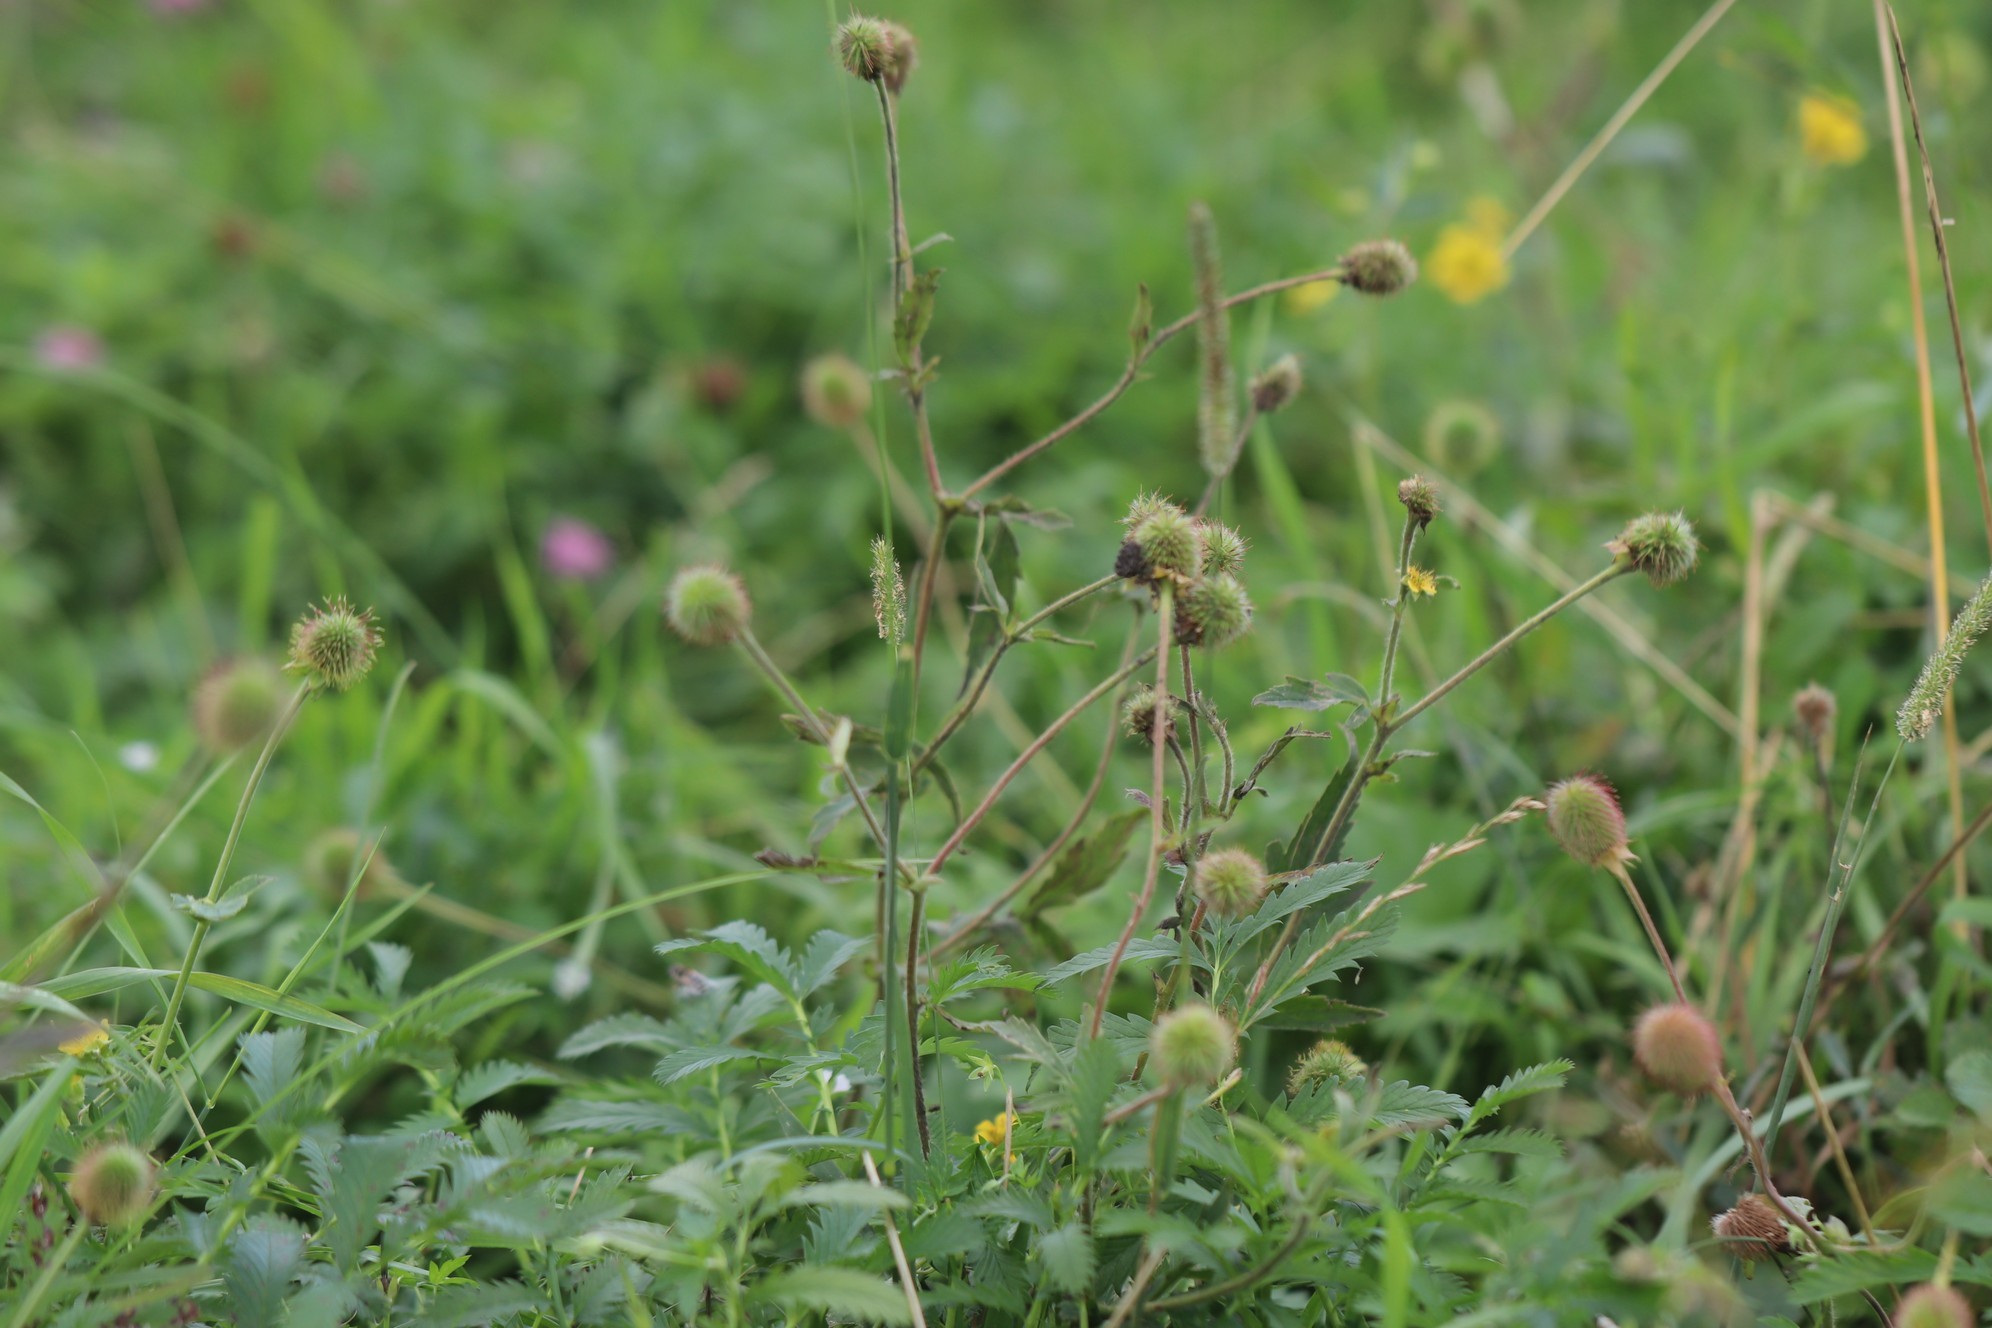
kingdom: Plantae
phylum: Tracheophyta
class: Magnoliopsida
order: Rosales
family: Rosaceae
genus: Geum
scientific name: Geum aleppicum
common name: Yellow avens
